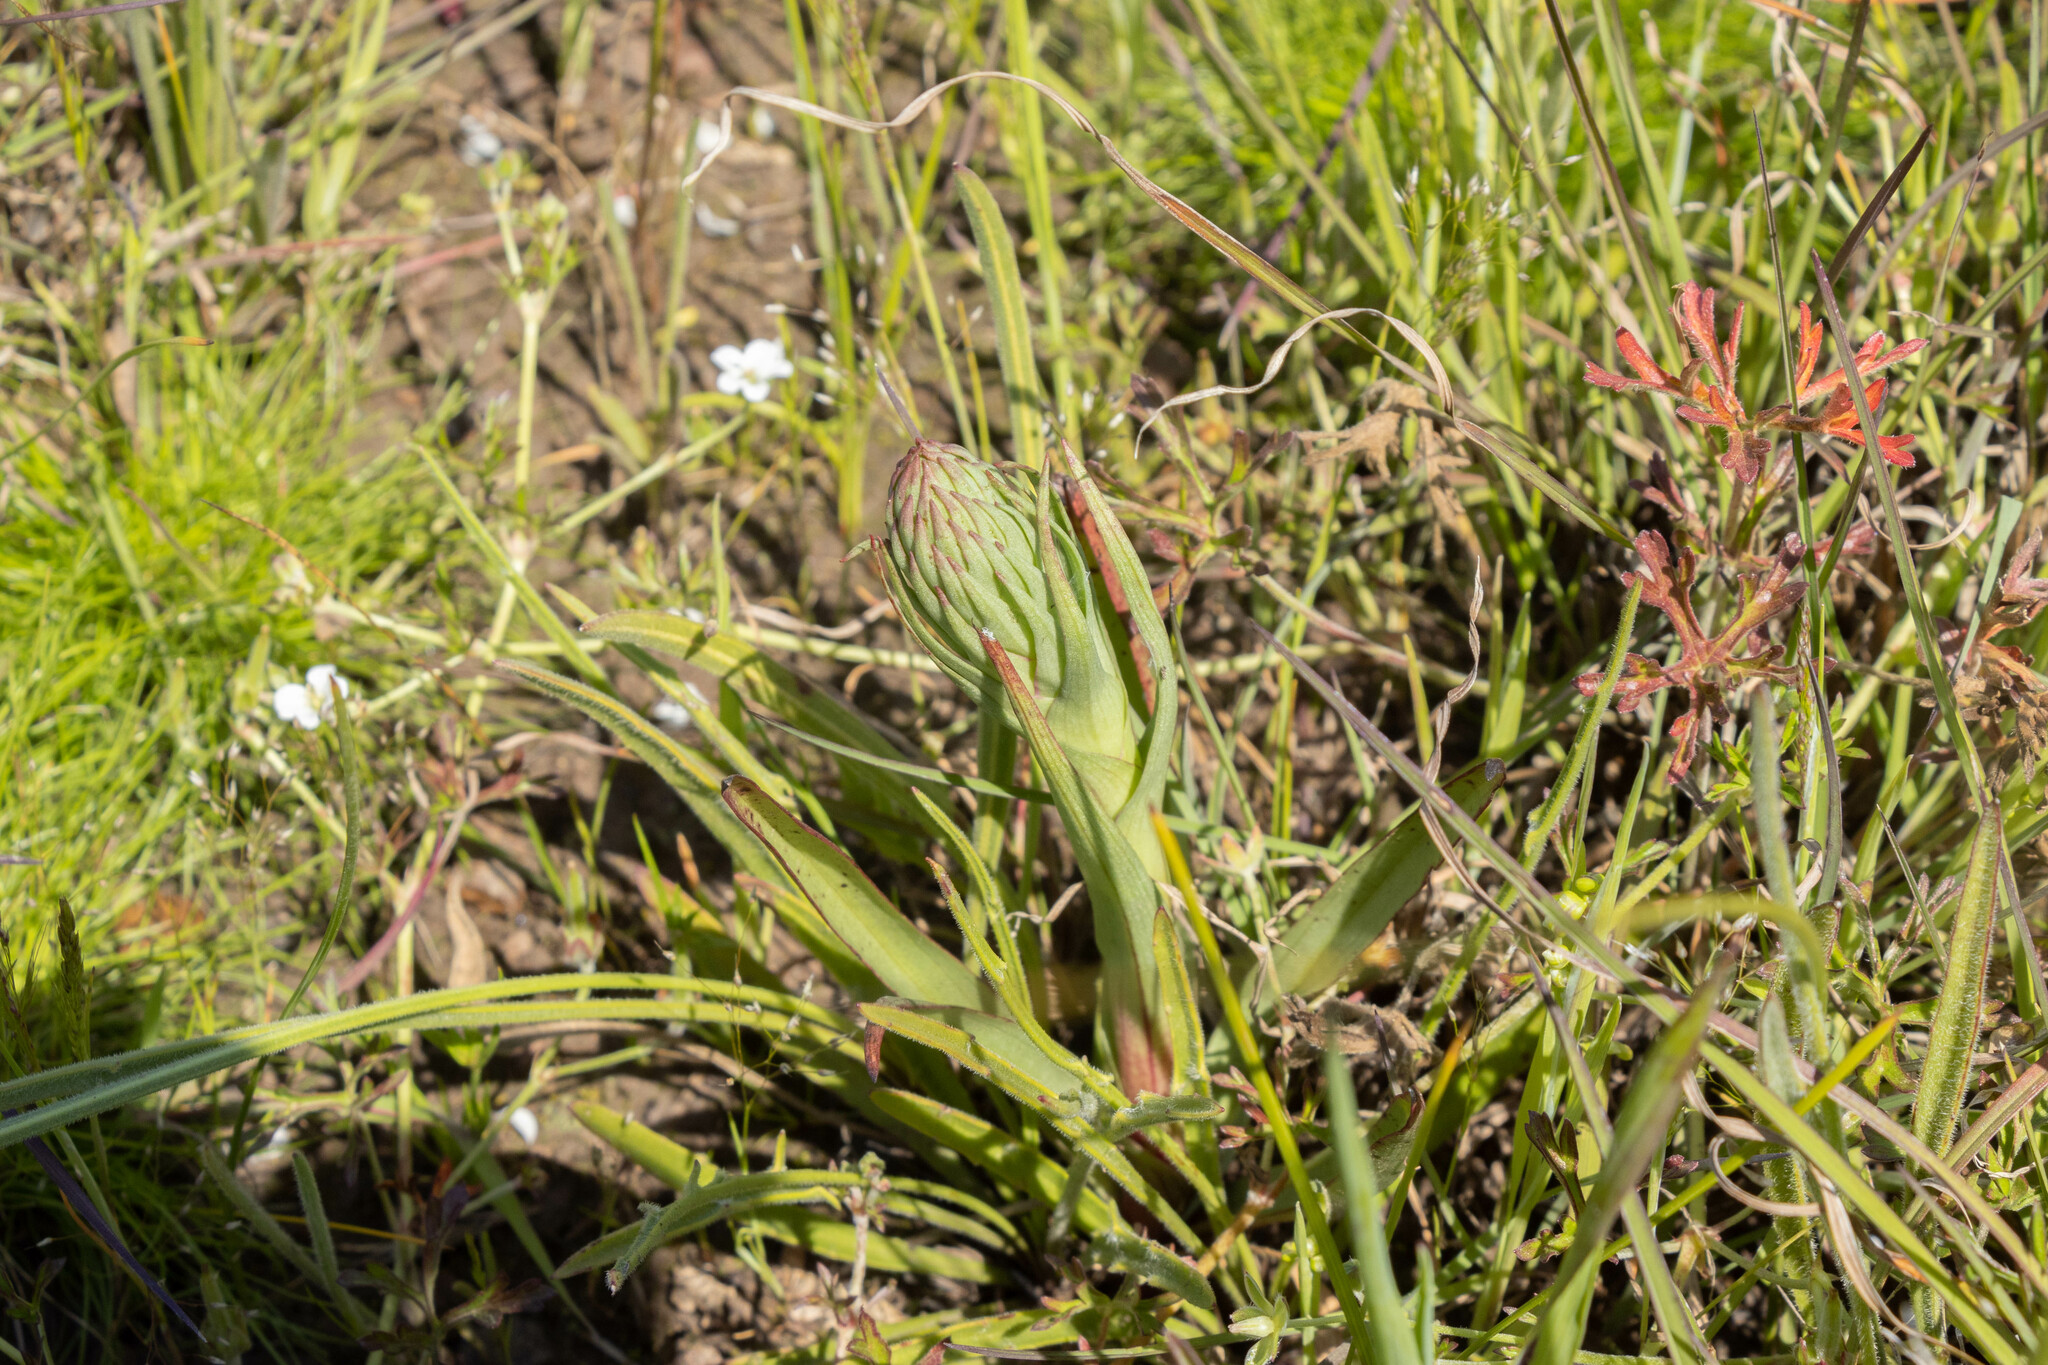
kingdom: Plantae
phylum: Tracheophyta
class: Liliopsida
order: Asparagales
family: Orchidaceae
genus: Disa
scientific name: Disa bracteata
